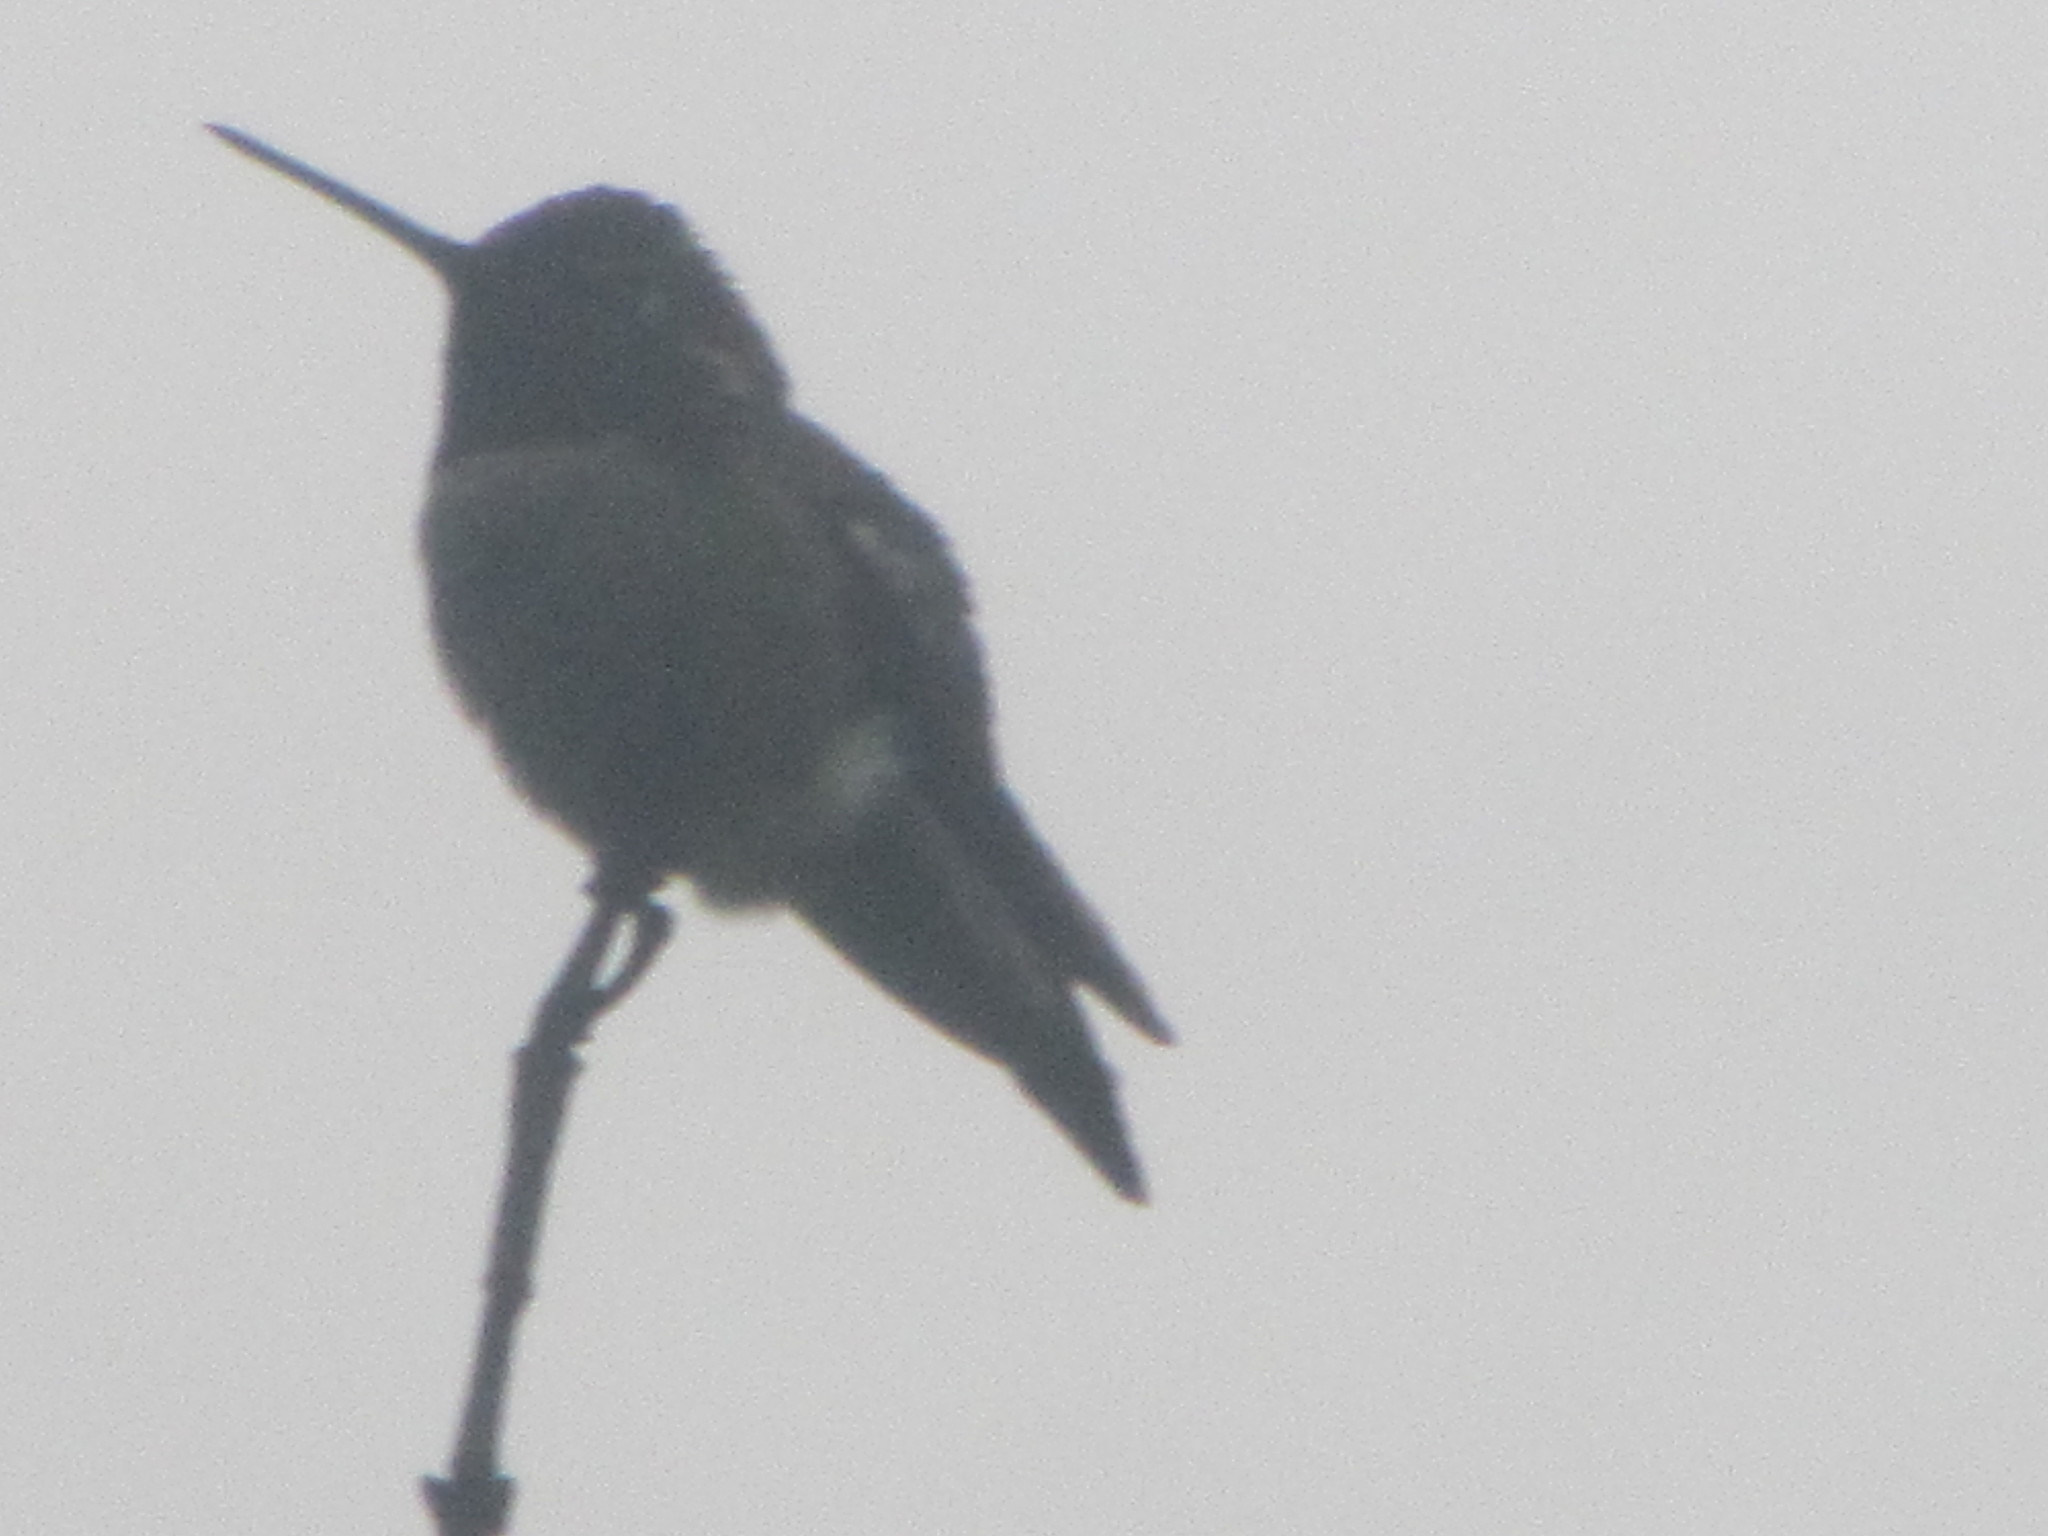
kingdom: Animalia
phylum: Chordata
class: Aves
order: Apodiformes
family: Trochilidae
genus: Calypte
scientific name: Calypte anna
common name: Anna's hummingbird
